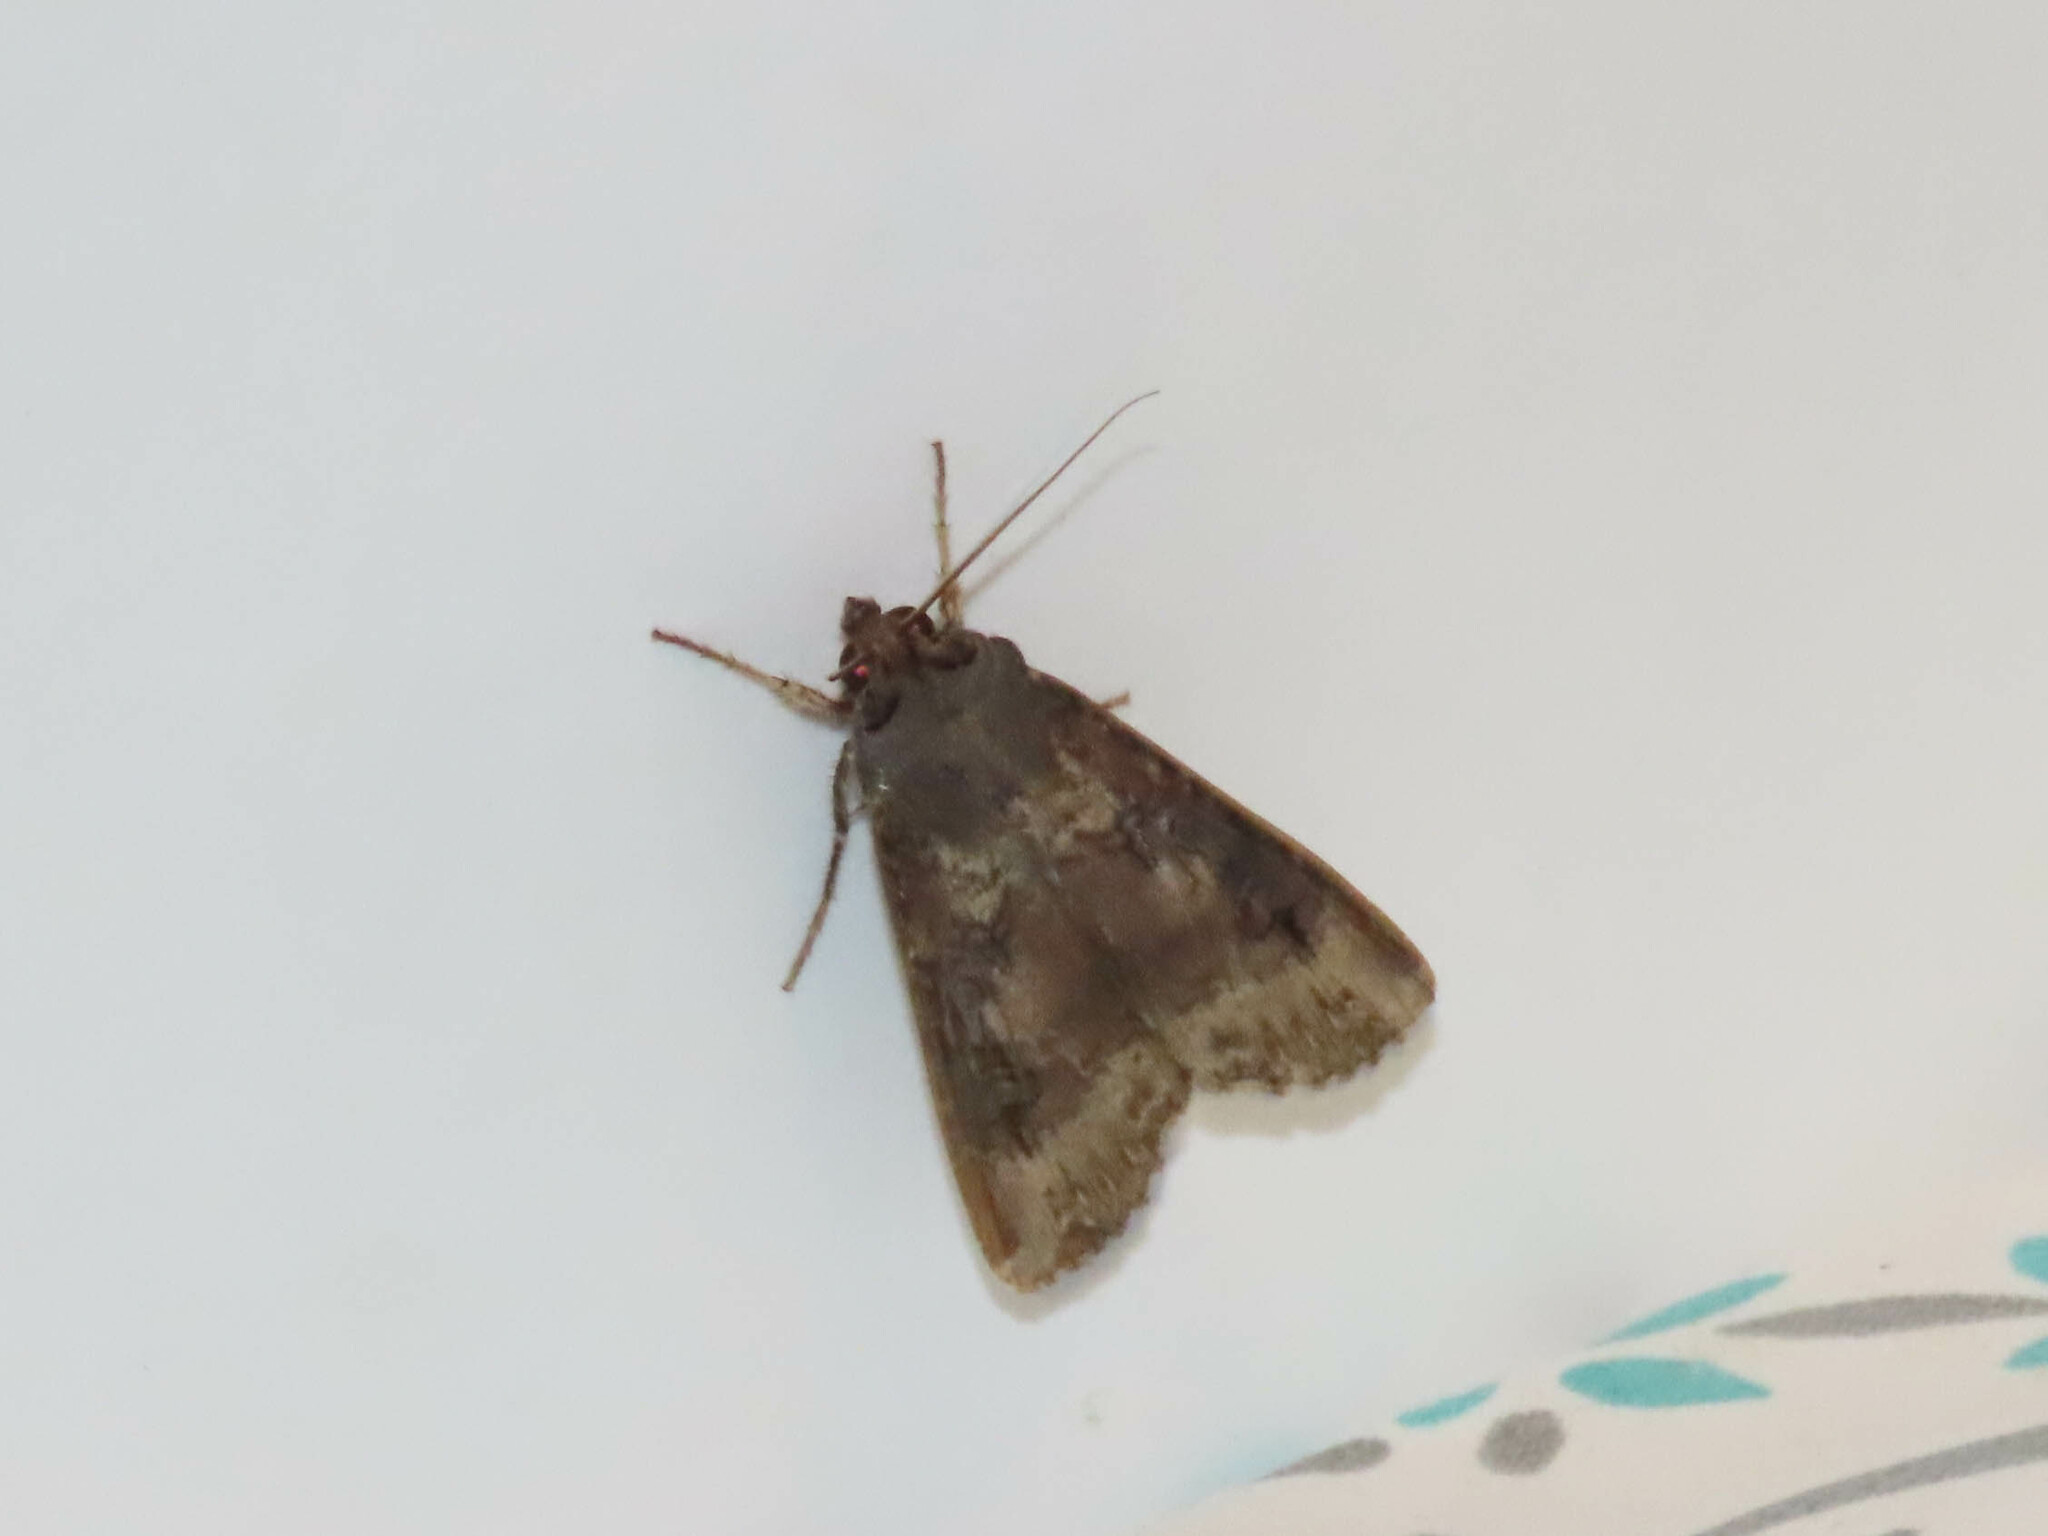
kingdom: Animalia
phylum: Arthropoda
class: Insecta
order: Lepidoptera
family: Noctuidae
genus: Agrotis
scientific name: Agrotis ipsilon
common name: Dark sword-grass
